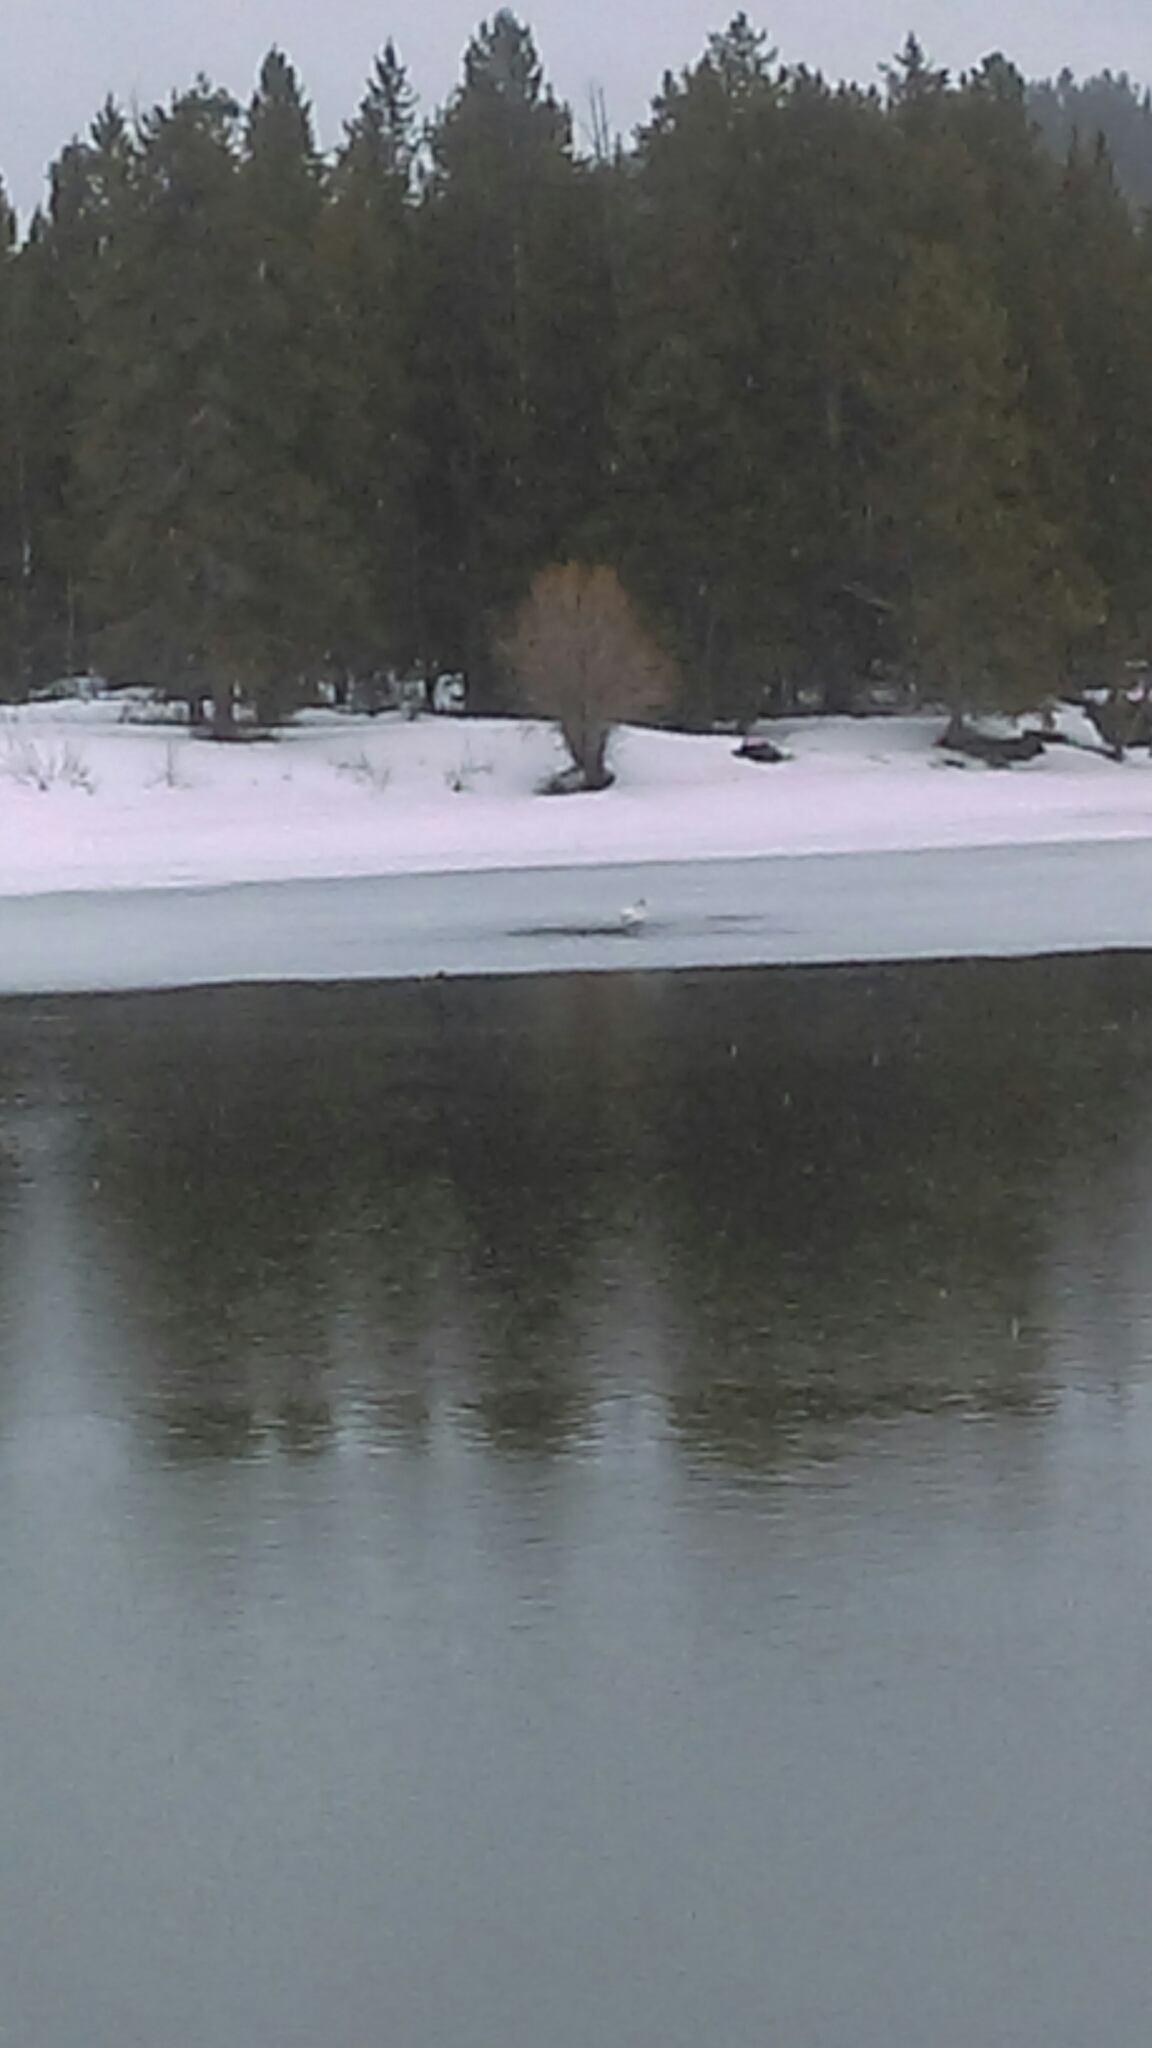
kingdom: Animalia
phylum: Chordata
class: Aves
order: Anseriformes
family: Anatidae
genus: Cygnus
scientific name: Cygnus buccinator
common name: Trumpeter swan
